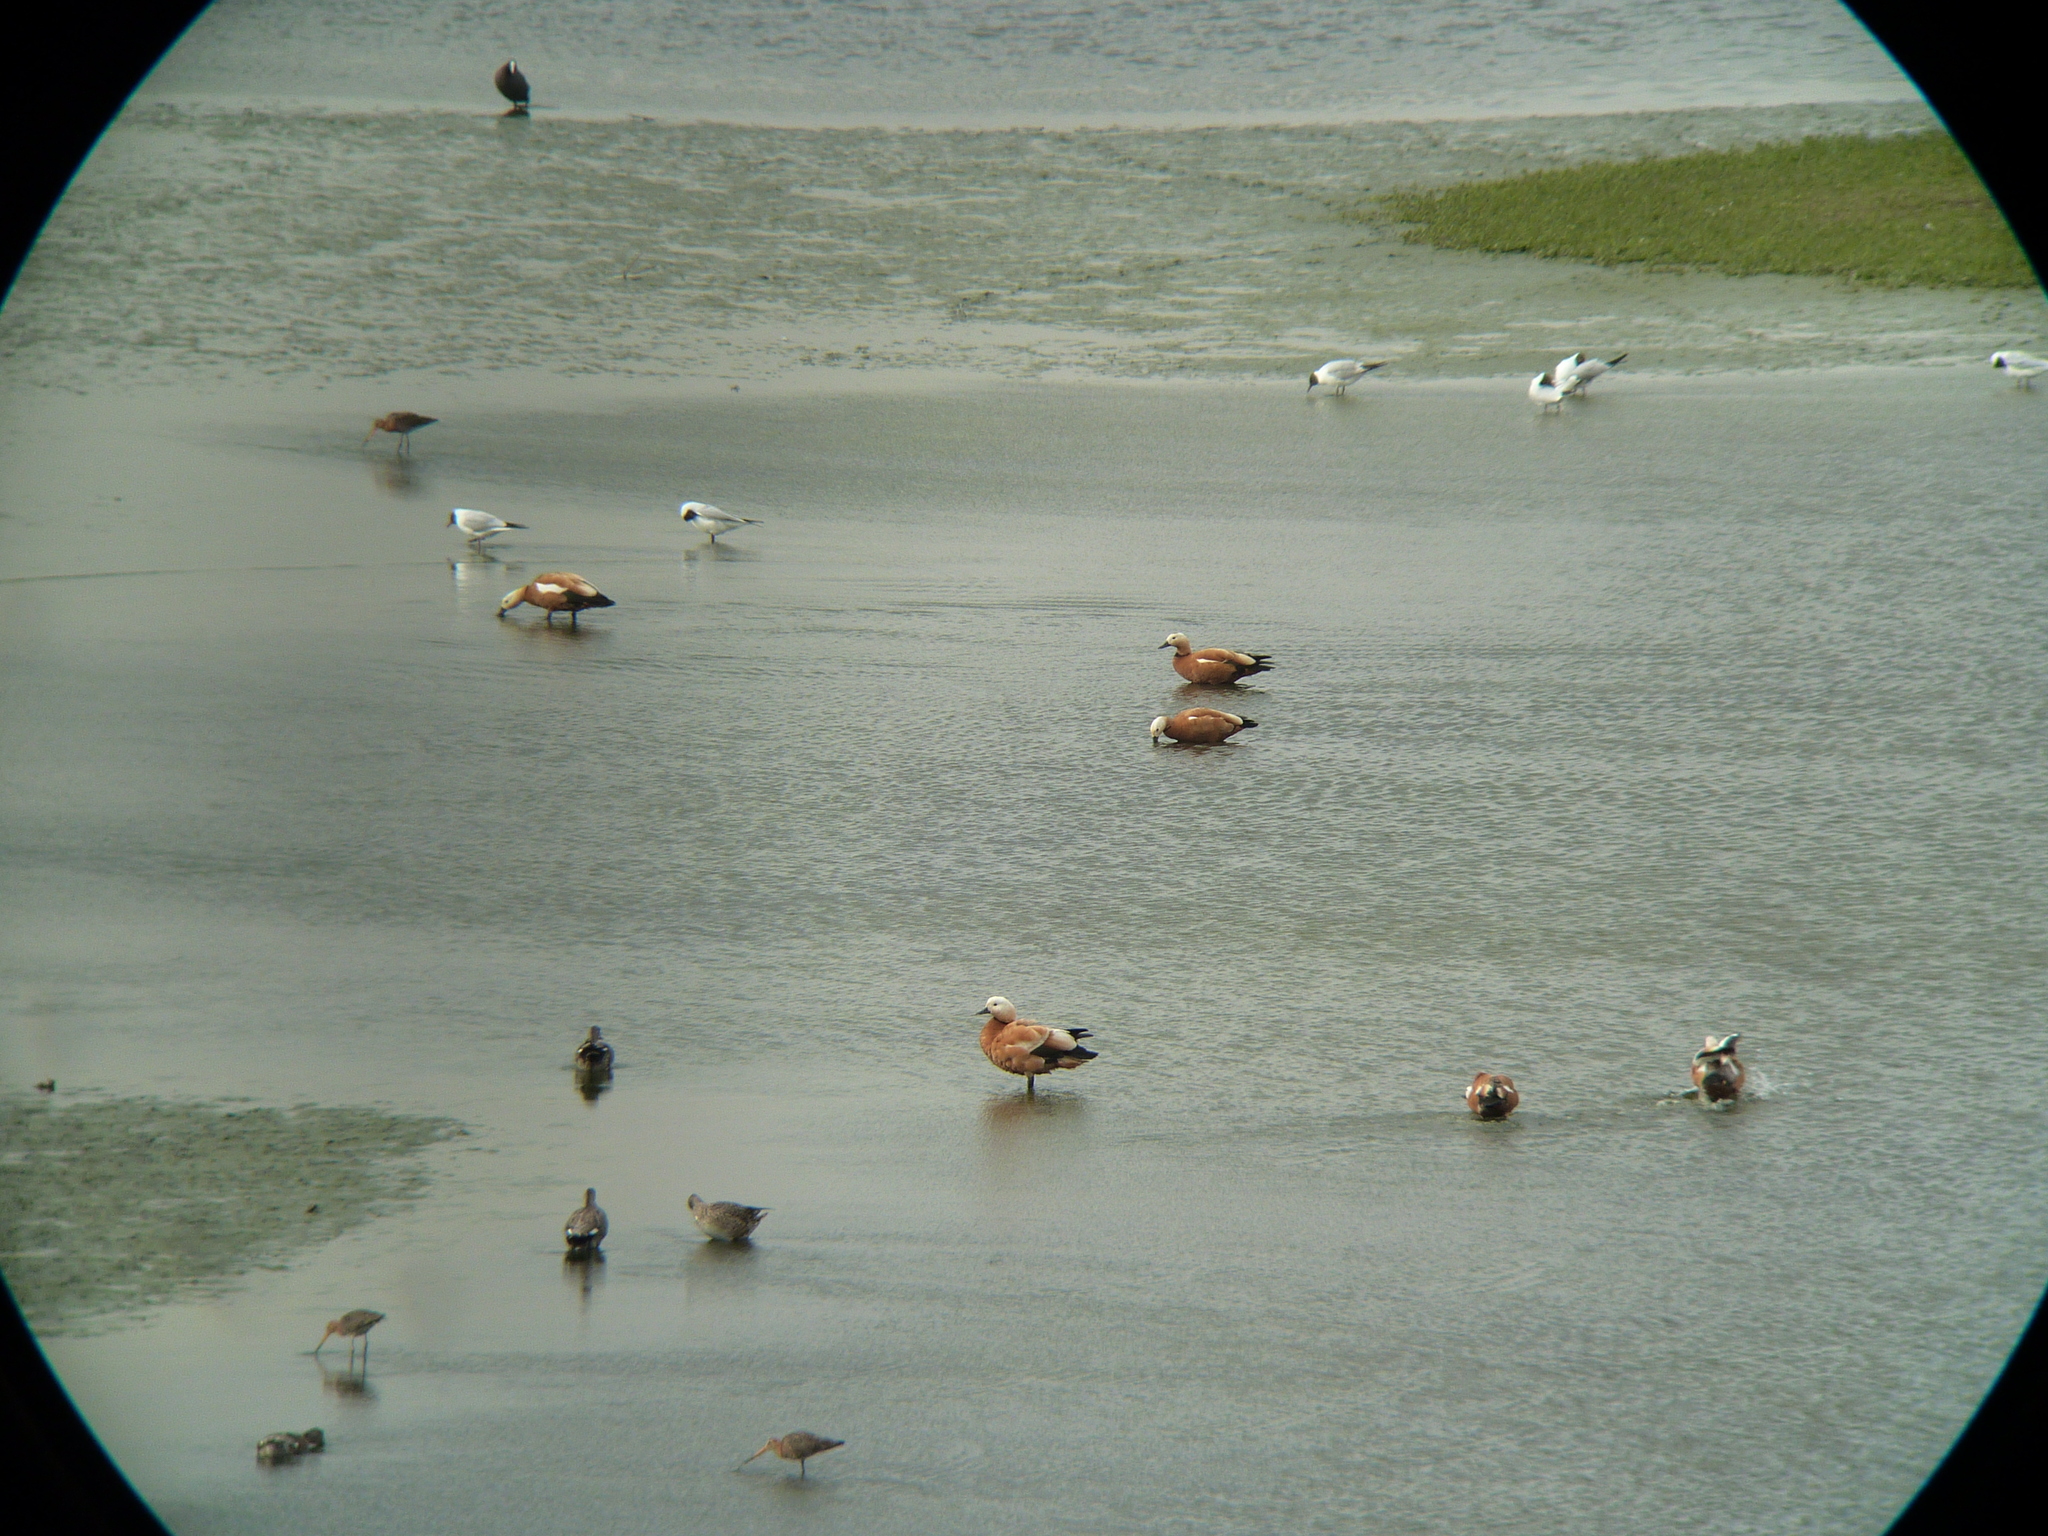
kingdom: Animalia
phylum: Chordata
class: Aves
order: Anseriformes
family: Anatidae
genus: Tadorna
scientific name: Tadorna ferruginea
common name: Ruddy shelduck
